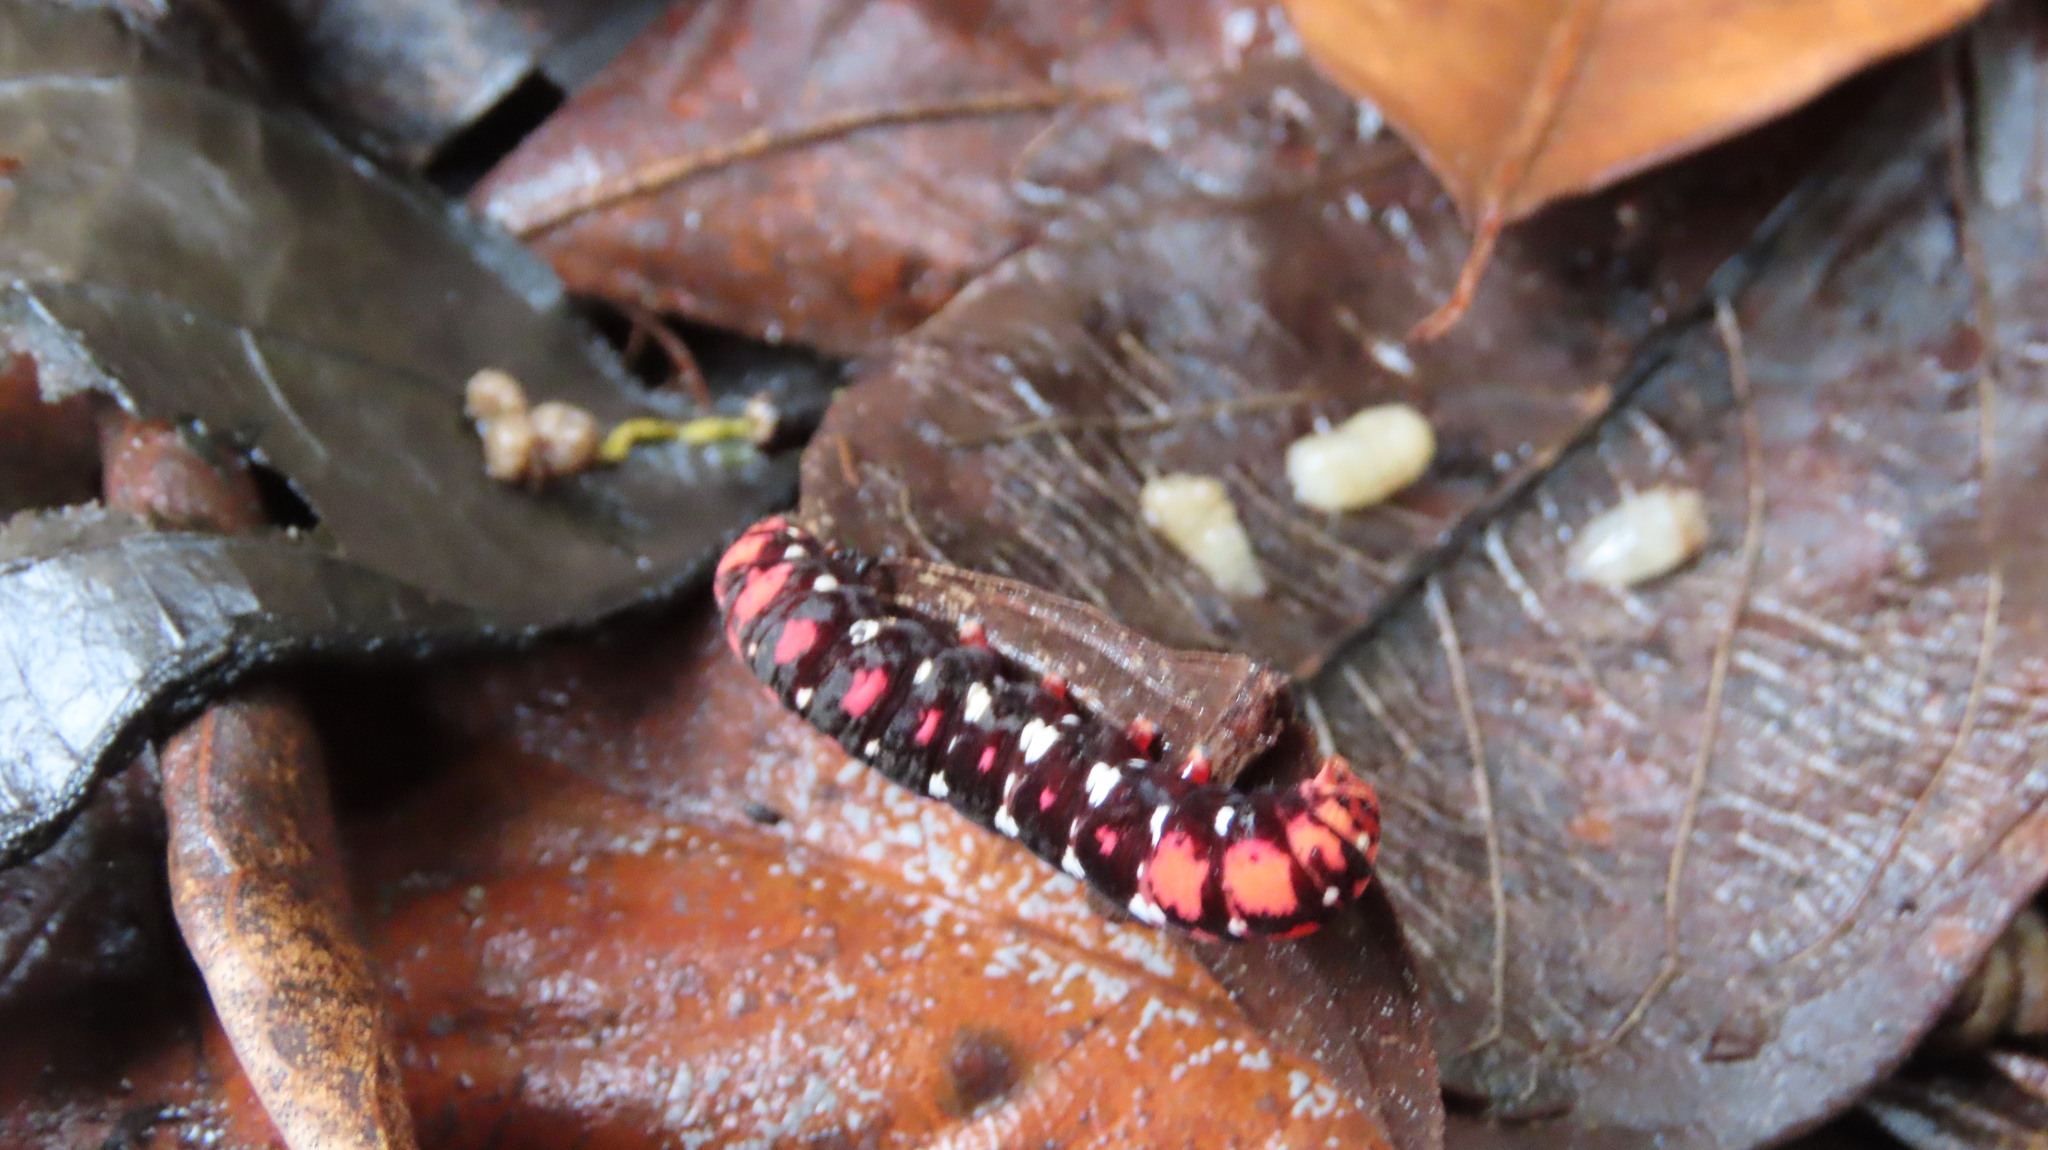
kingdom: Animalia
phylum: Arthropoda
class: Insecta
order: Lepidoptera
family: Noctuidae
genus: Polytela
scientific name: Polytela gloriosae
